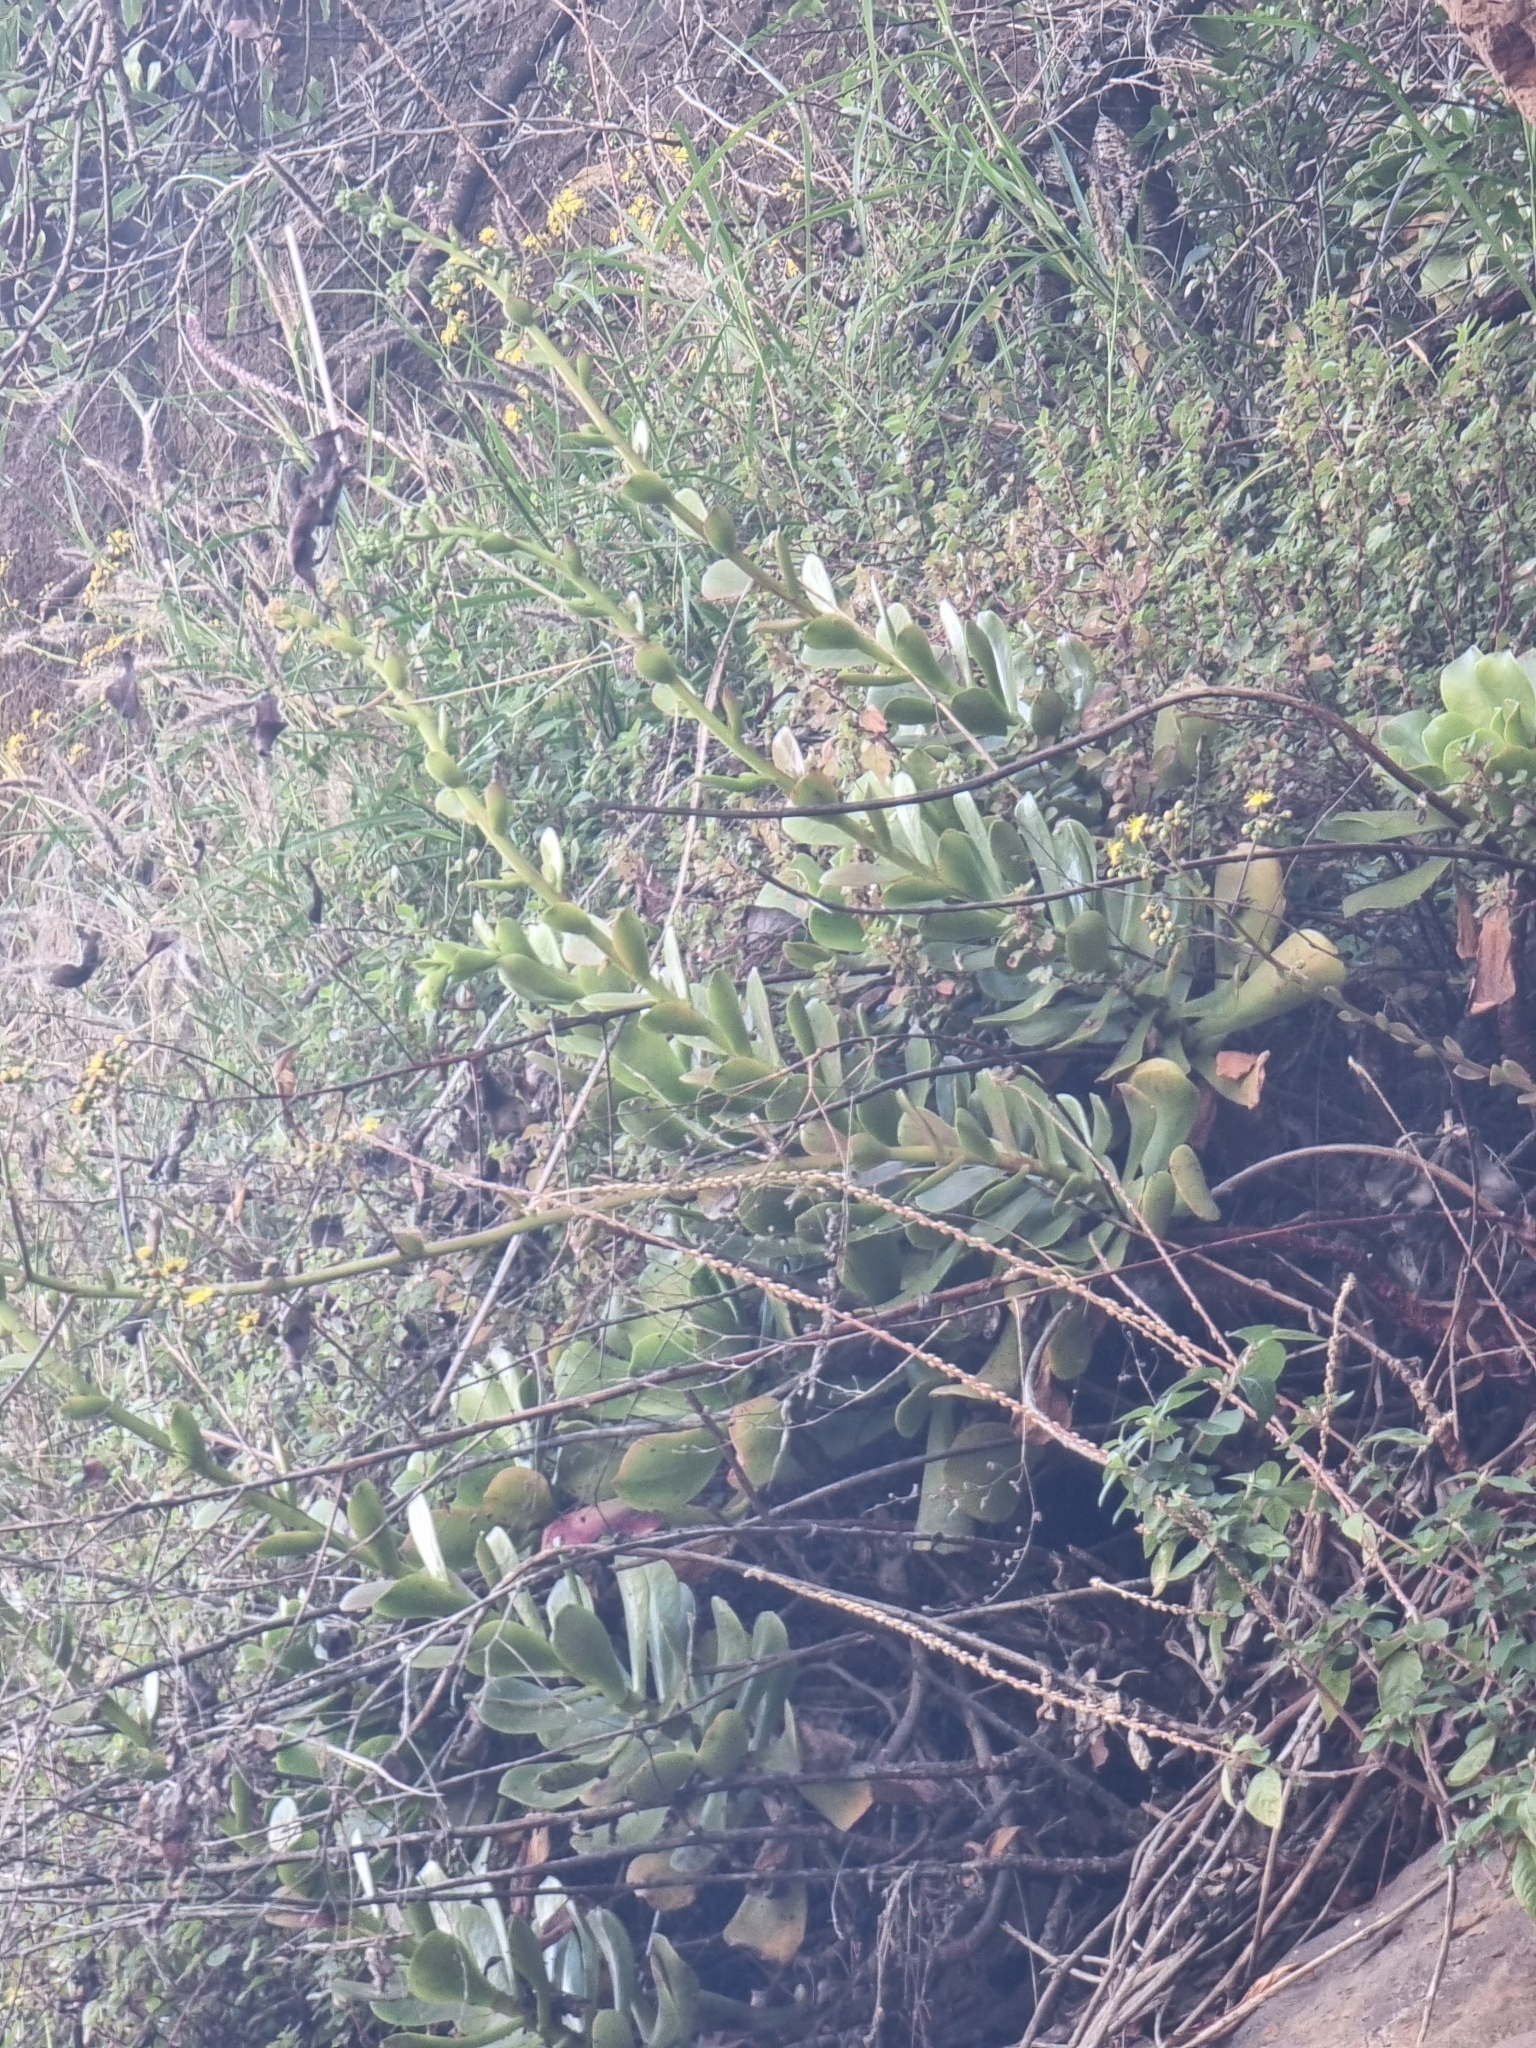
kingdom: Plantae
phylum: Tracheophyta
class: Magnoliopsida
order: Saxifragales
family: Crassulaceae
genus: Aeonium
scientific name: Aeonium glutinosum
